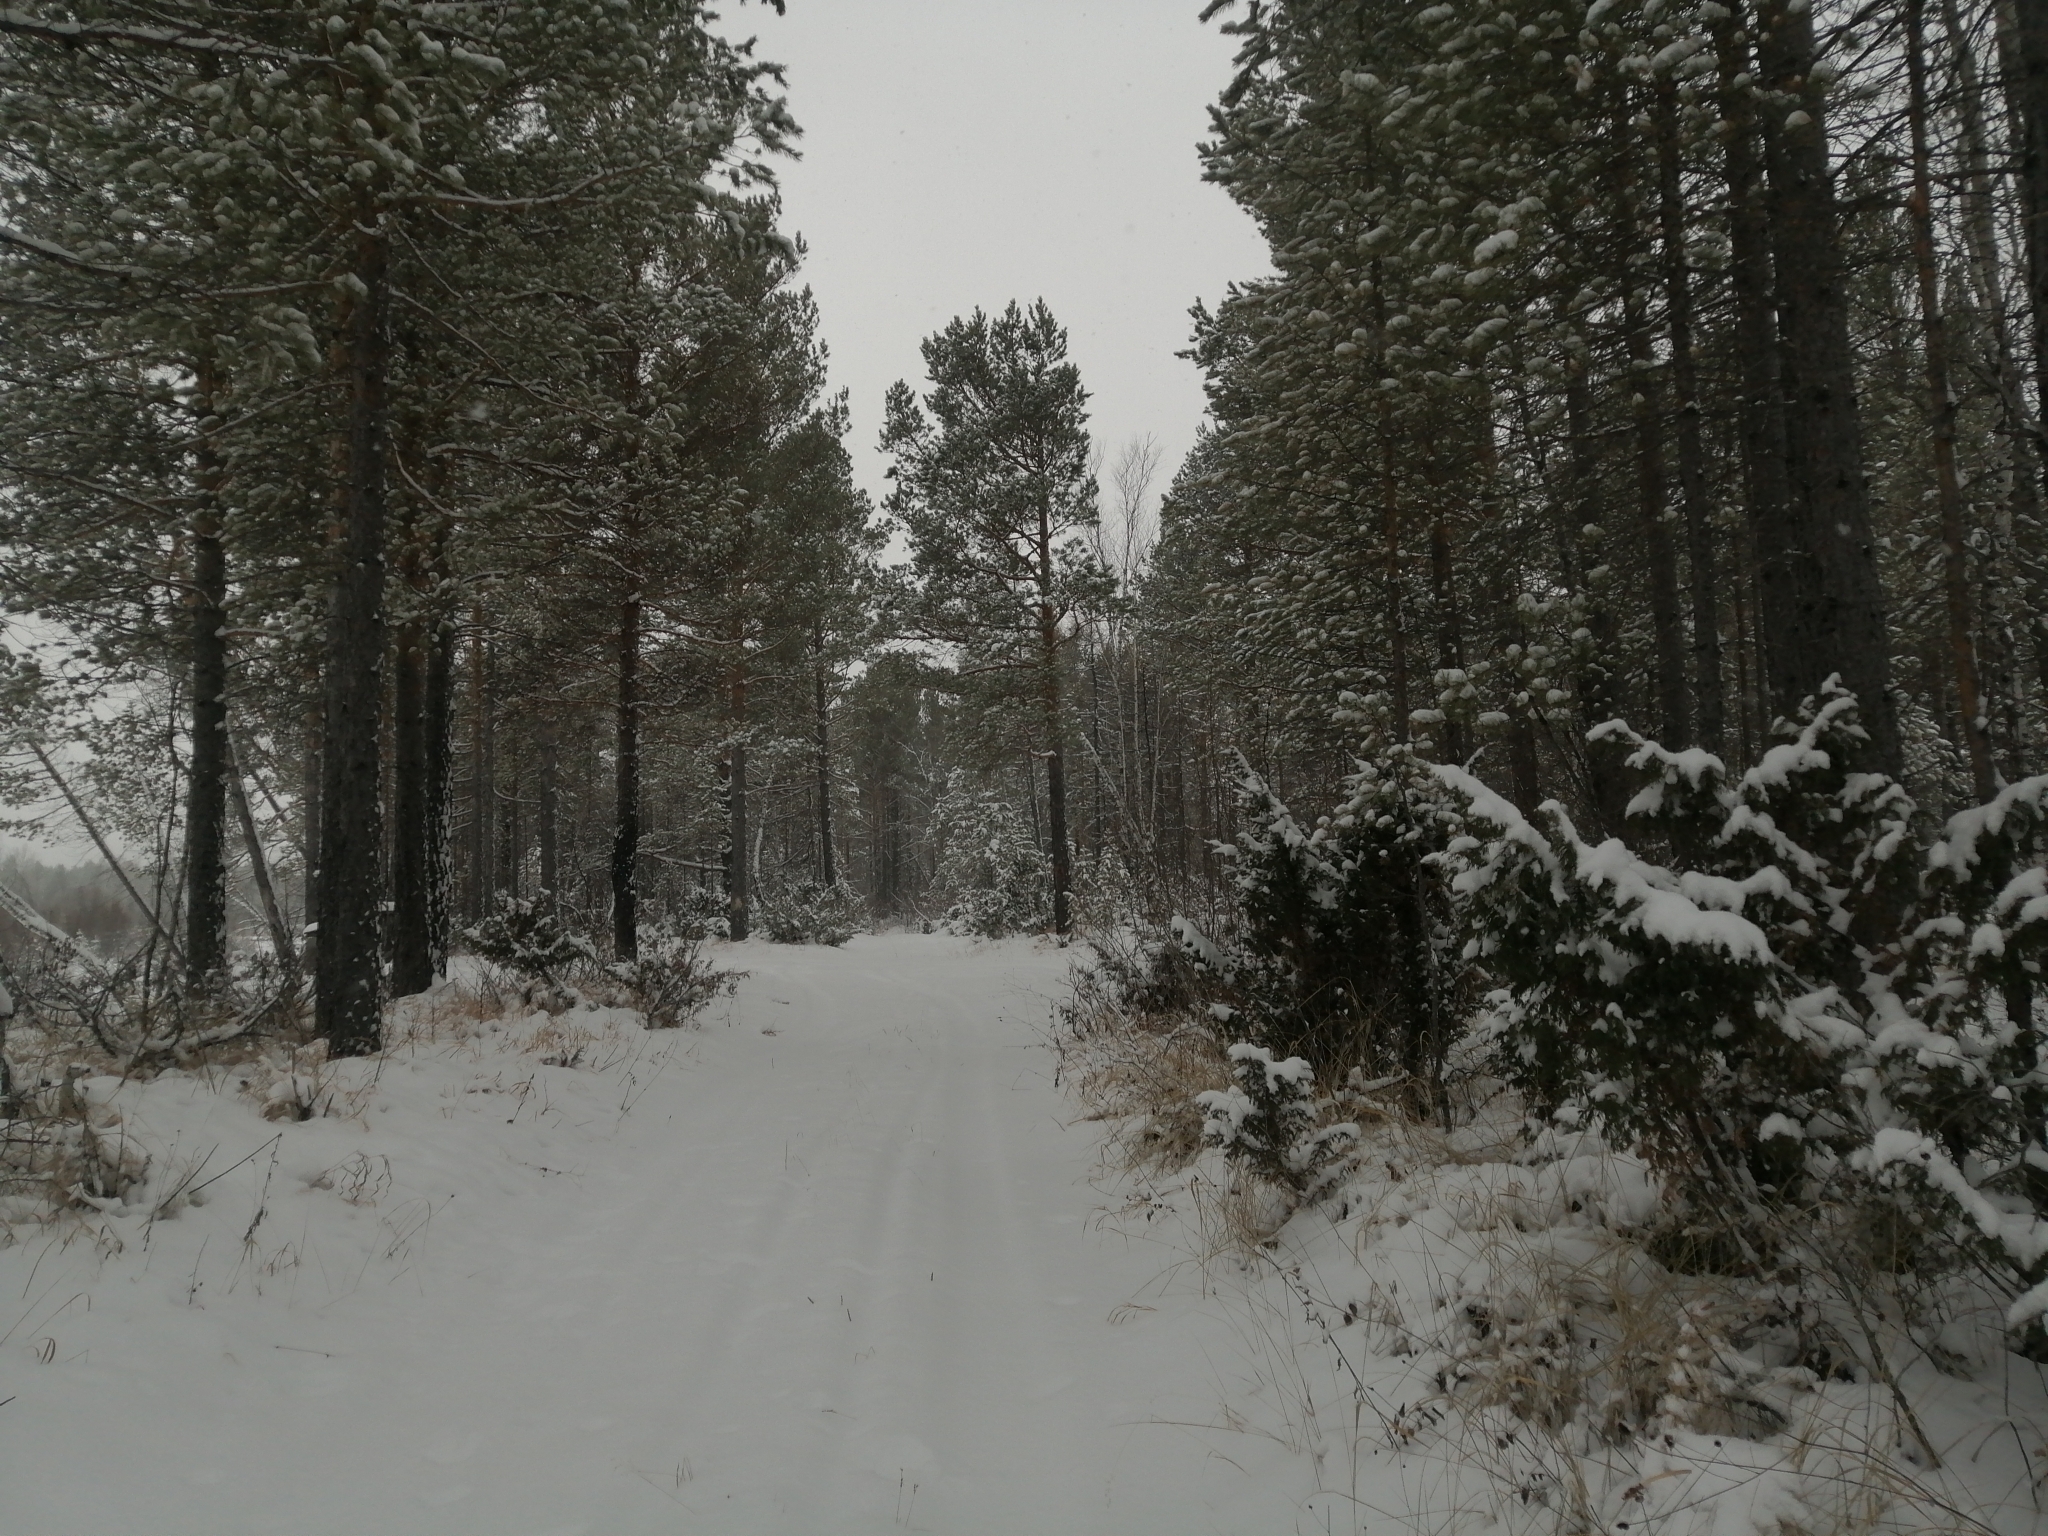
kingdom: Plantae
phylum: Tracheophyta
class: Pinopsida
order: Pinales
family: Pinaceae
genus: Pinus
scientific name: Pinus sylvestris
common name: Scots pine
